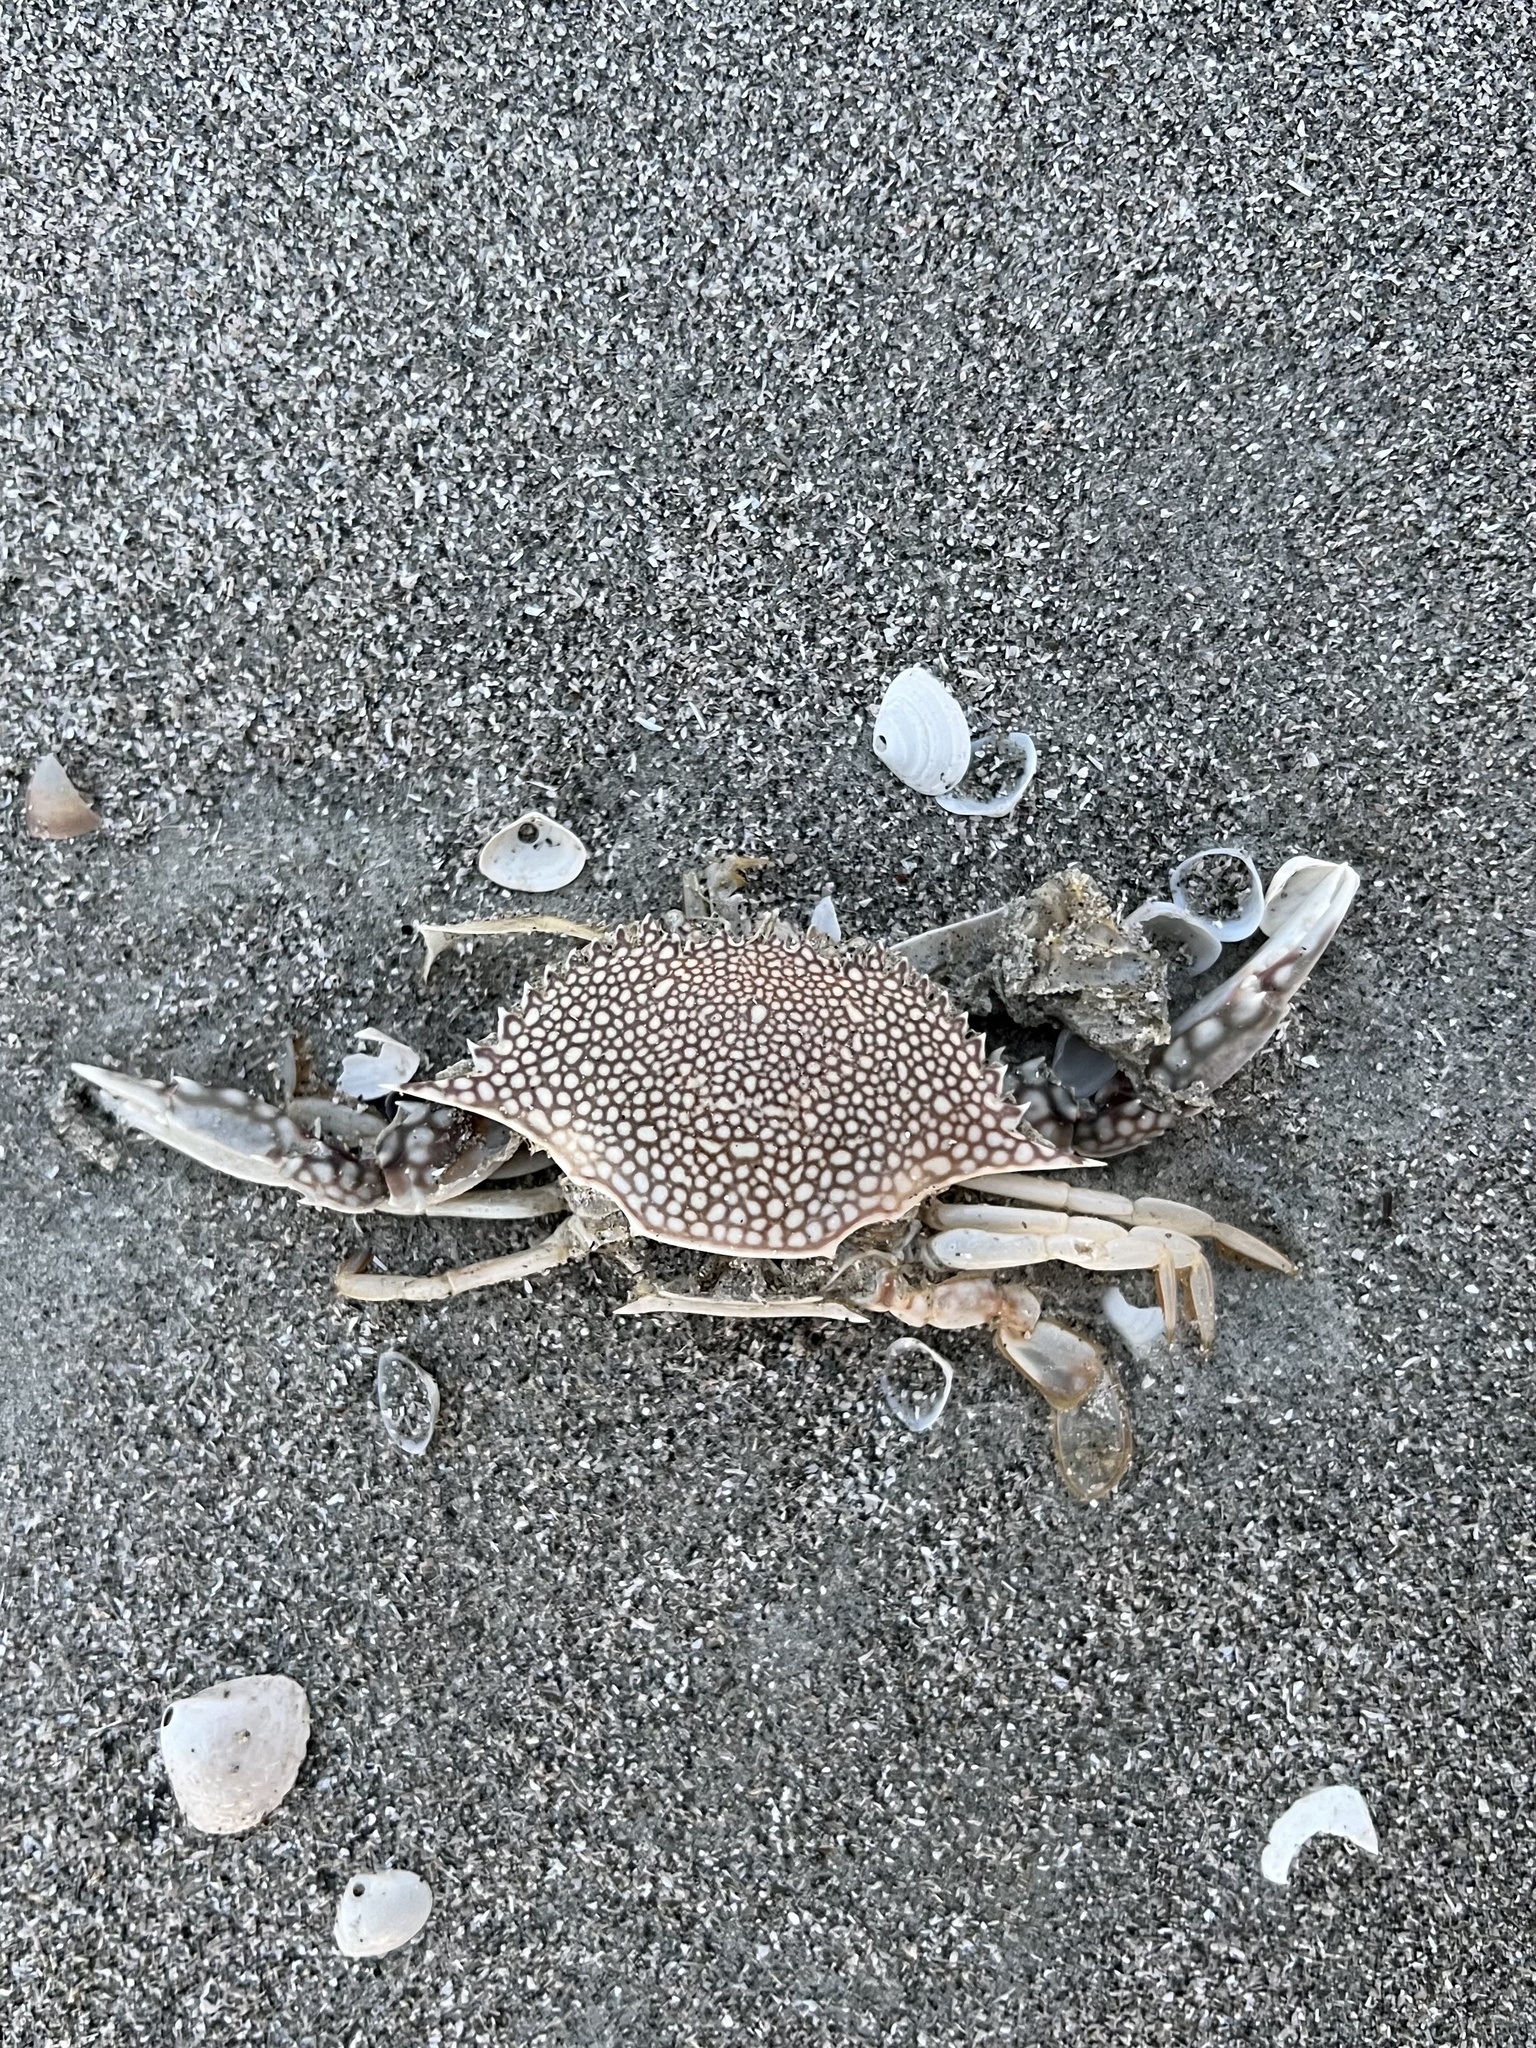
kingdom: Animalia
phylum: Arthropoda
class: Malacostraca
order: Decapoda
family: Portunidae
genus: Arenaeus
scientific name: Arenaeus cribrarius
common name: Speckled crab
